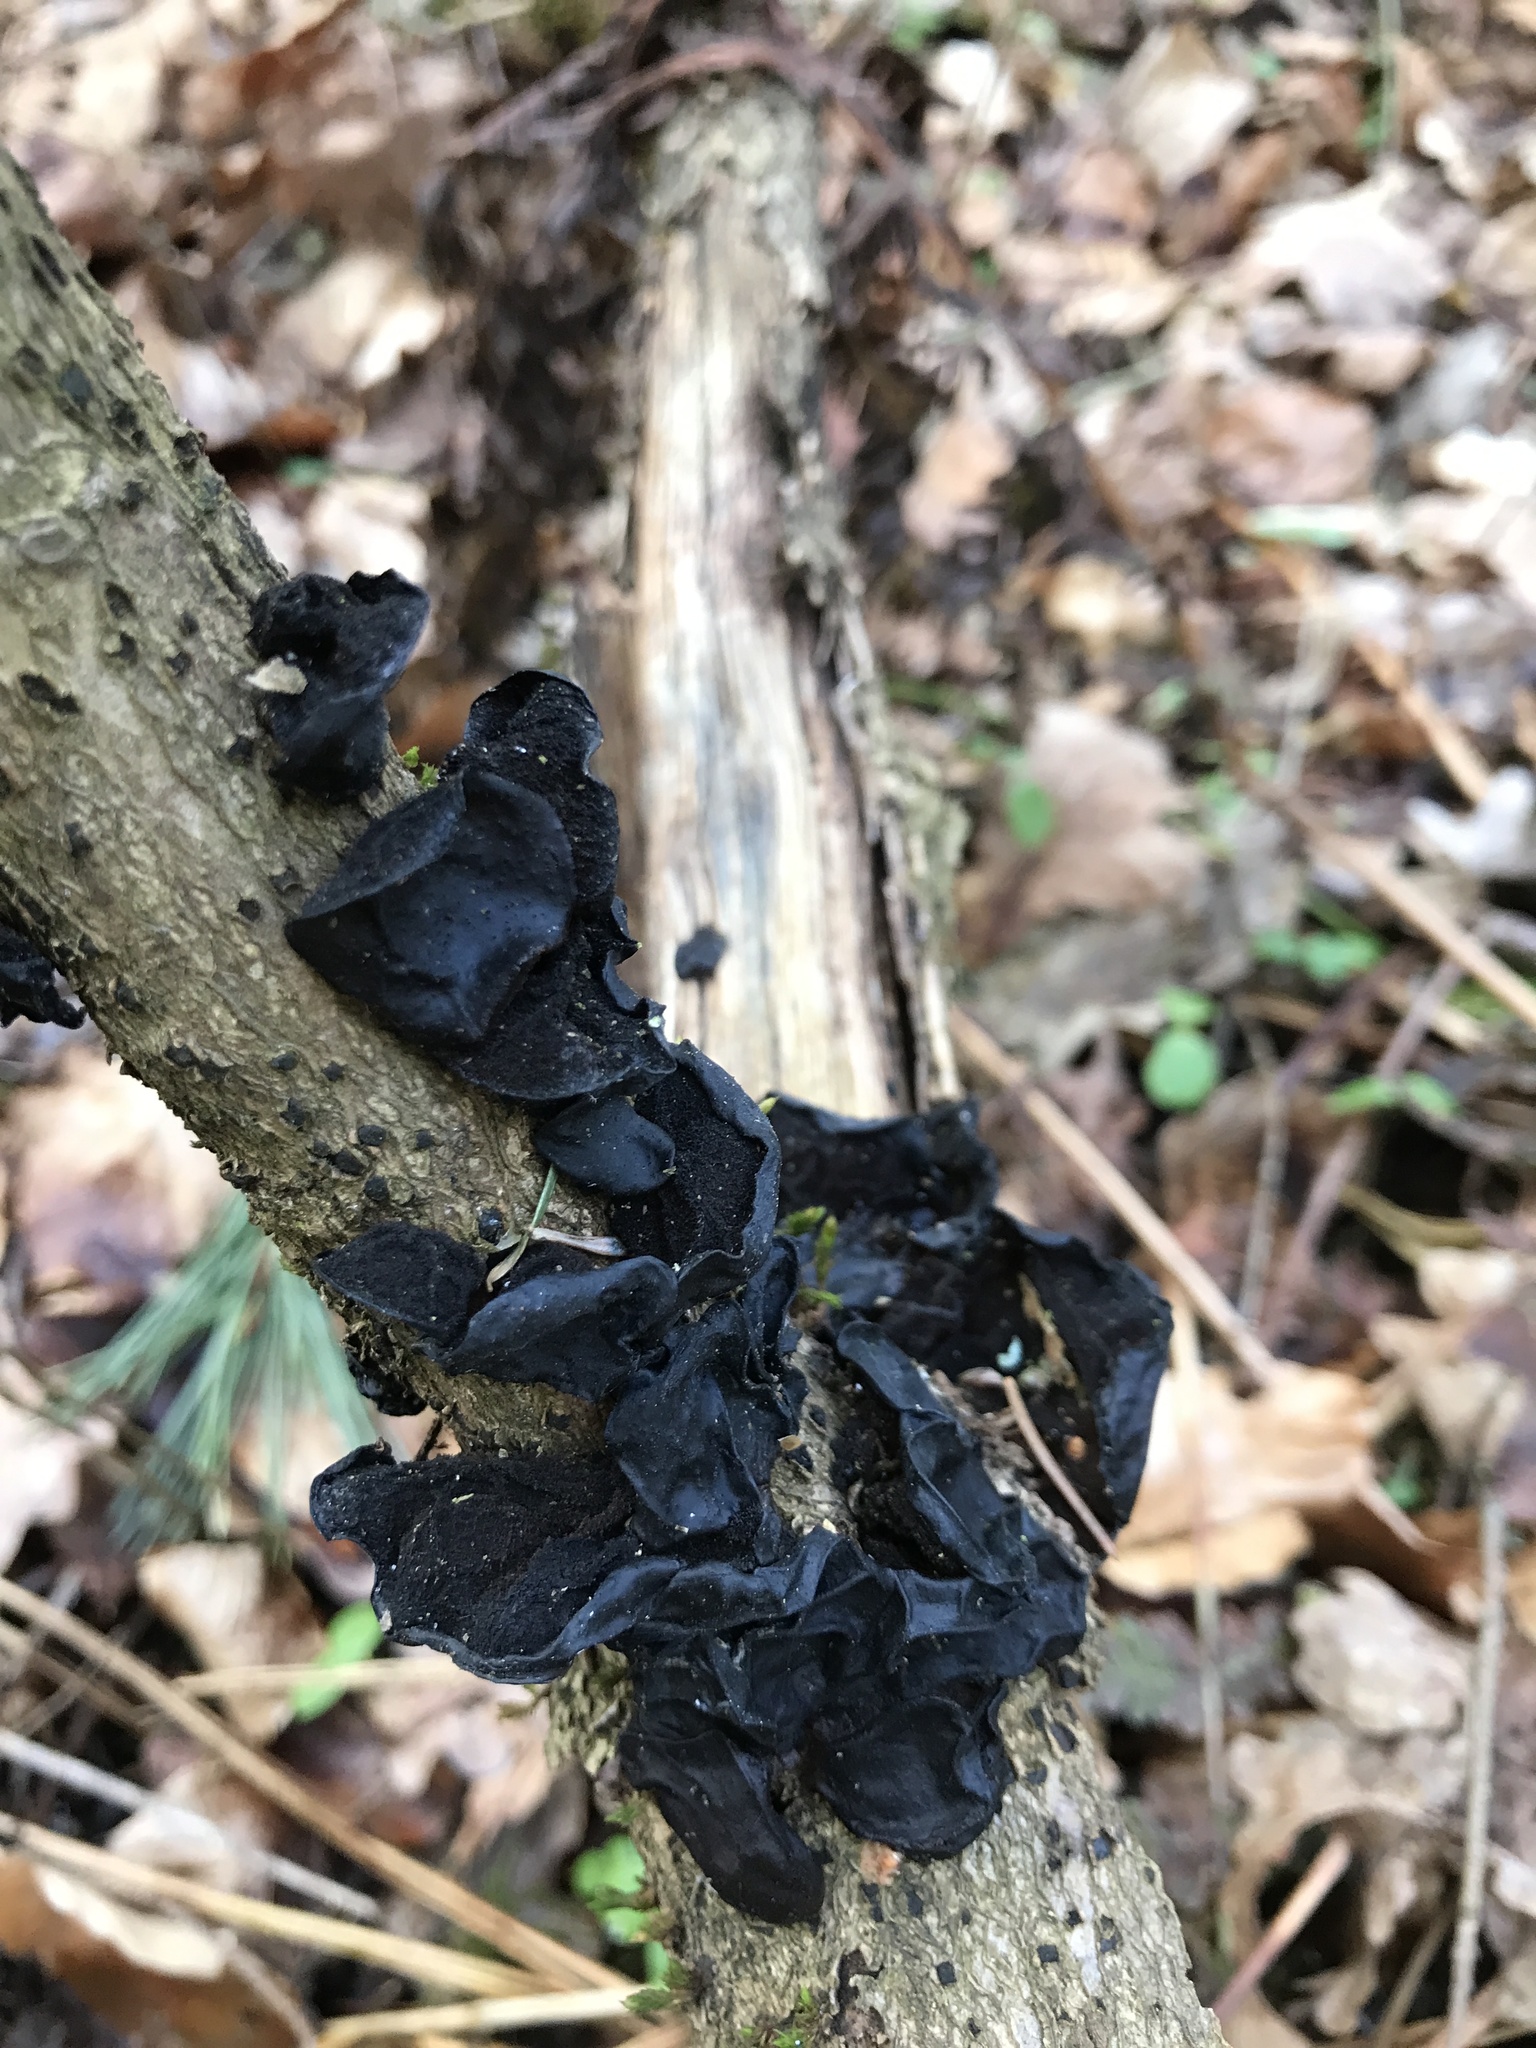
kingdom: Fungi
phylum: Basidiomycota
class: Agaricomycetes
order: Auriculariales
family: Auriculariaceae
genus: Exidia
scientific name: Exidia glandulosa
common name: Witches' butter
